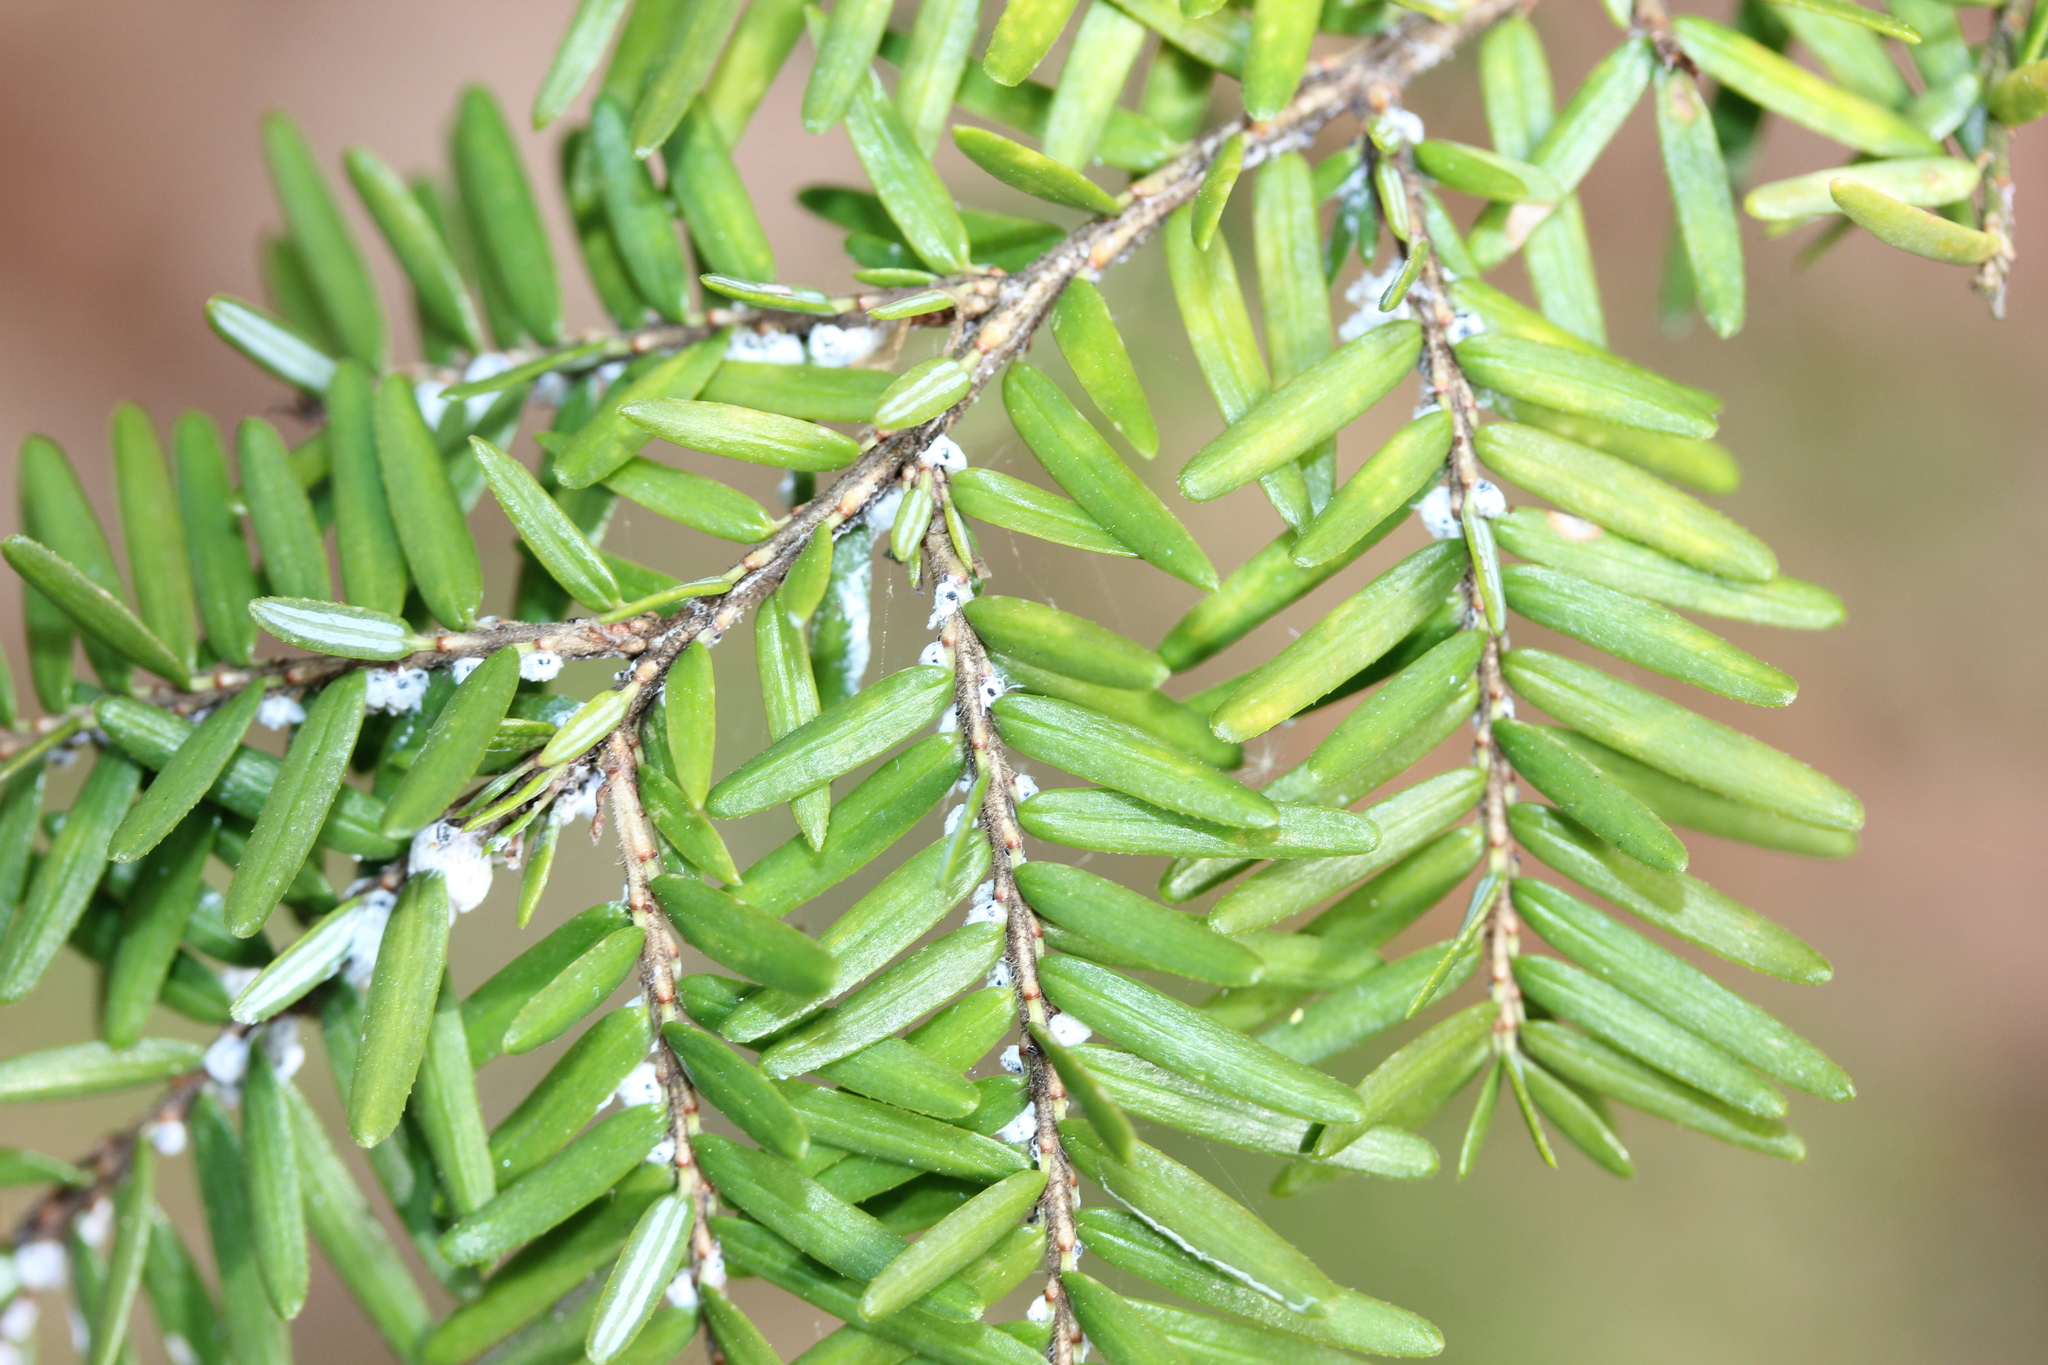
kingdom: Animalia
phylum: Arthropoda
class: Insecta
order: Hemiptera
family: Adelgidae
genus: Adelges
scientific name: Adelges tsugae
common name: Hemlock woolly adelgid
